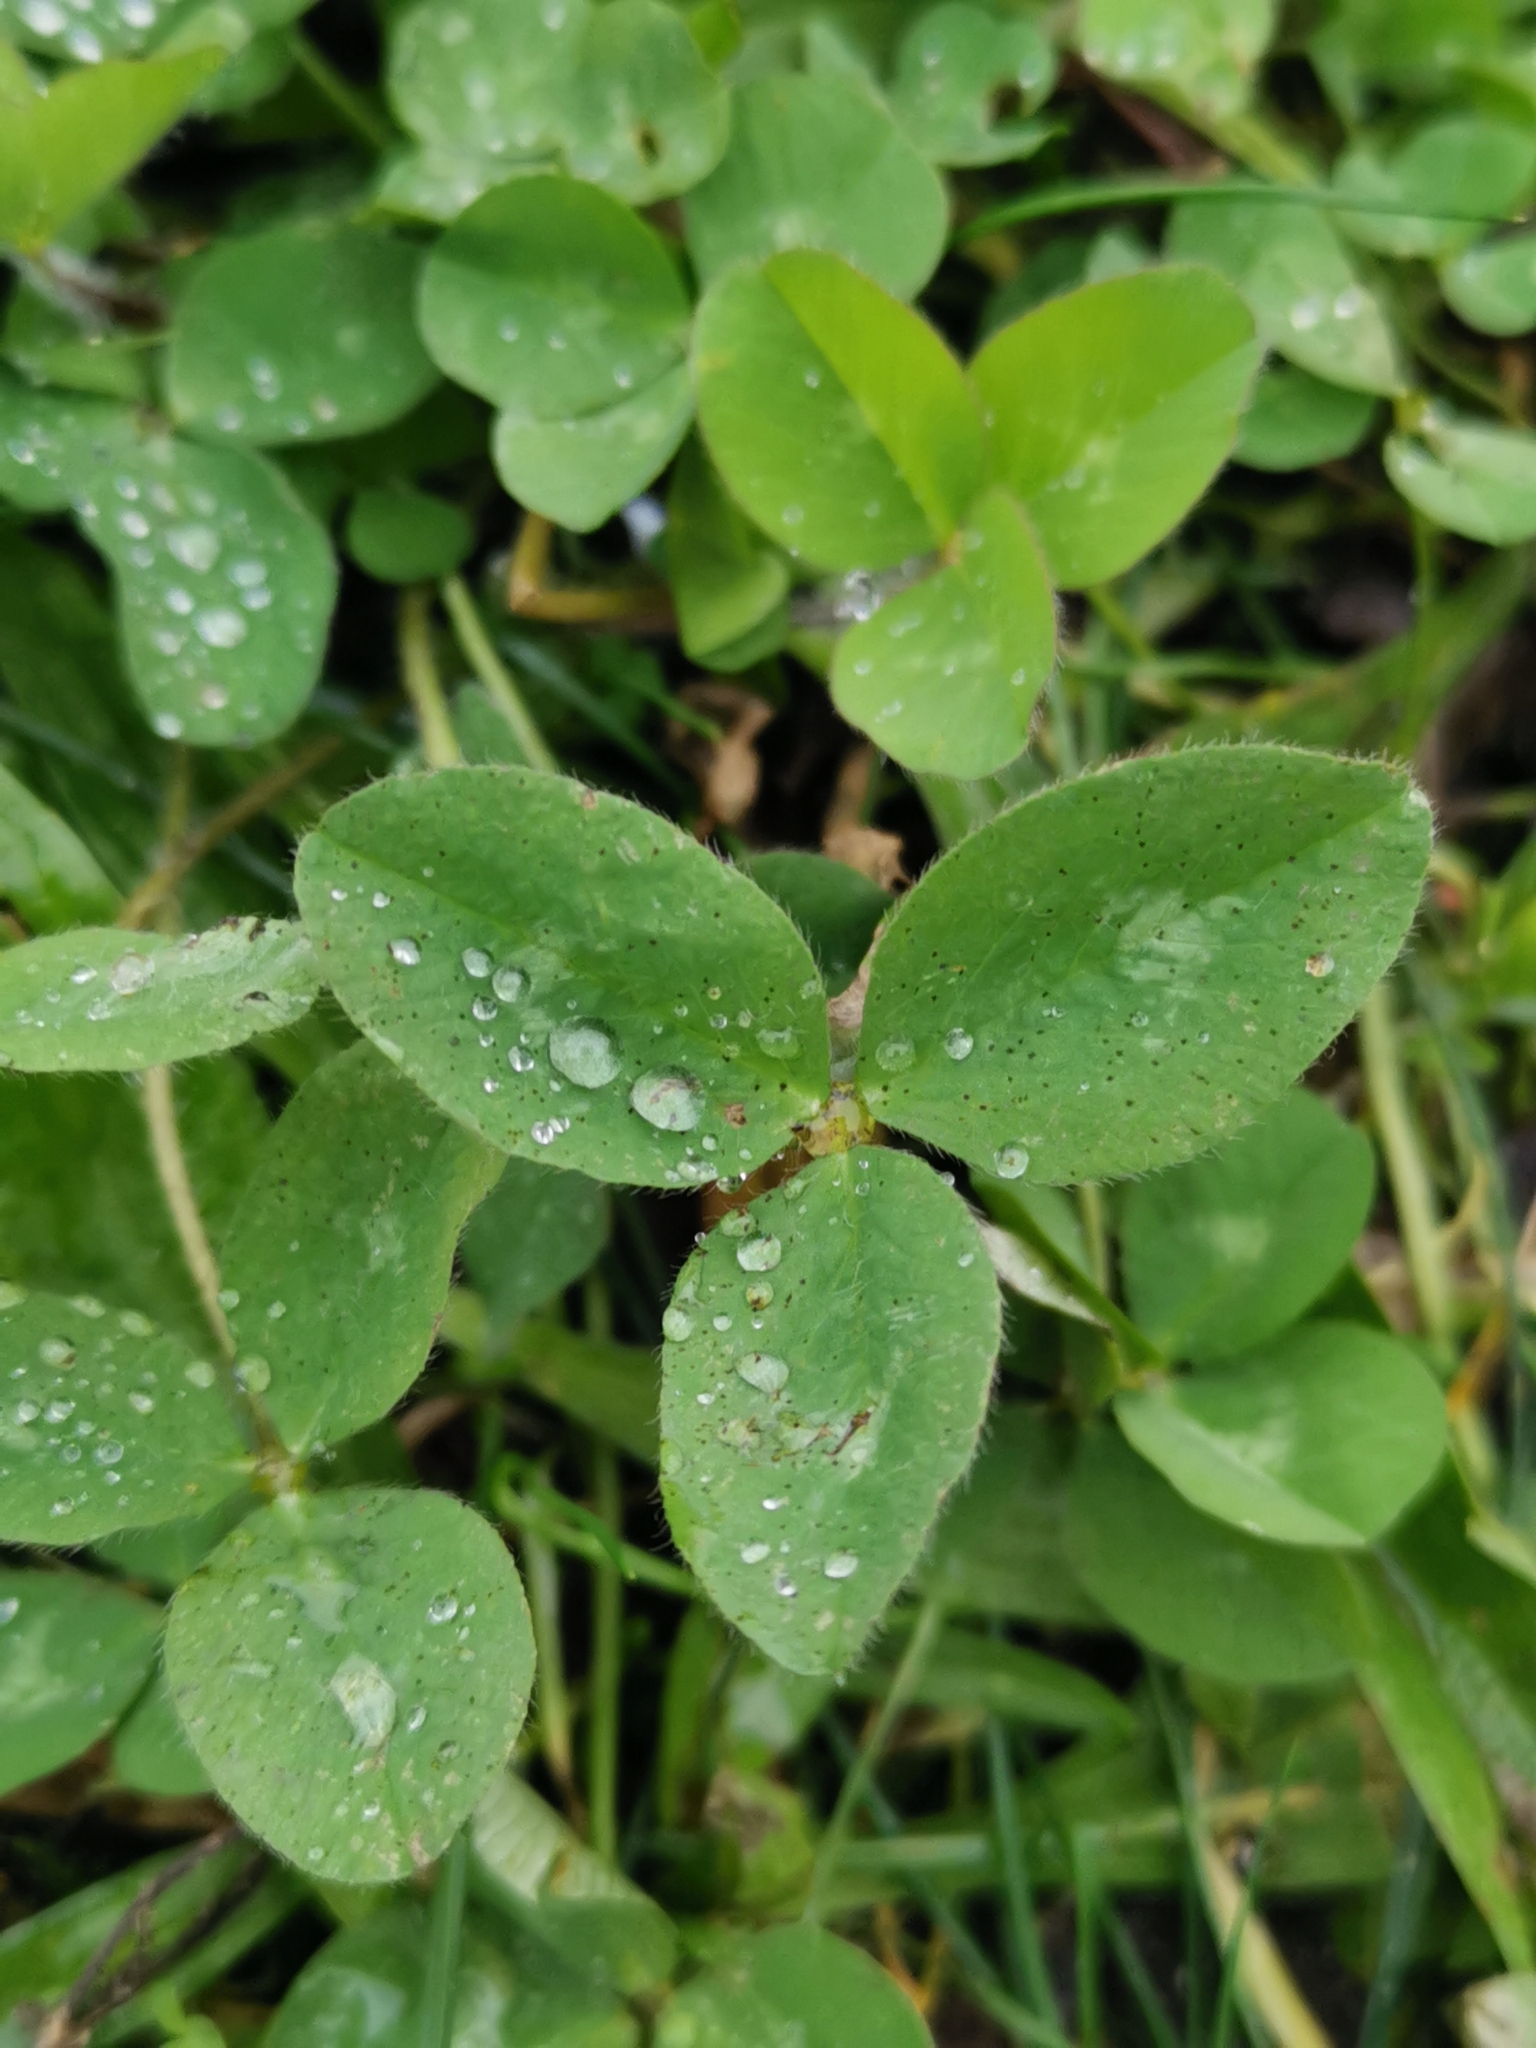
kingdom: Plantae
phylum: Tracheophyta
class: Magnoliopsida
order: Fabales
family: Fabaceae
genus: Trifolium
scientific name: Trifolium pratense
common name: Red clover
